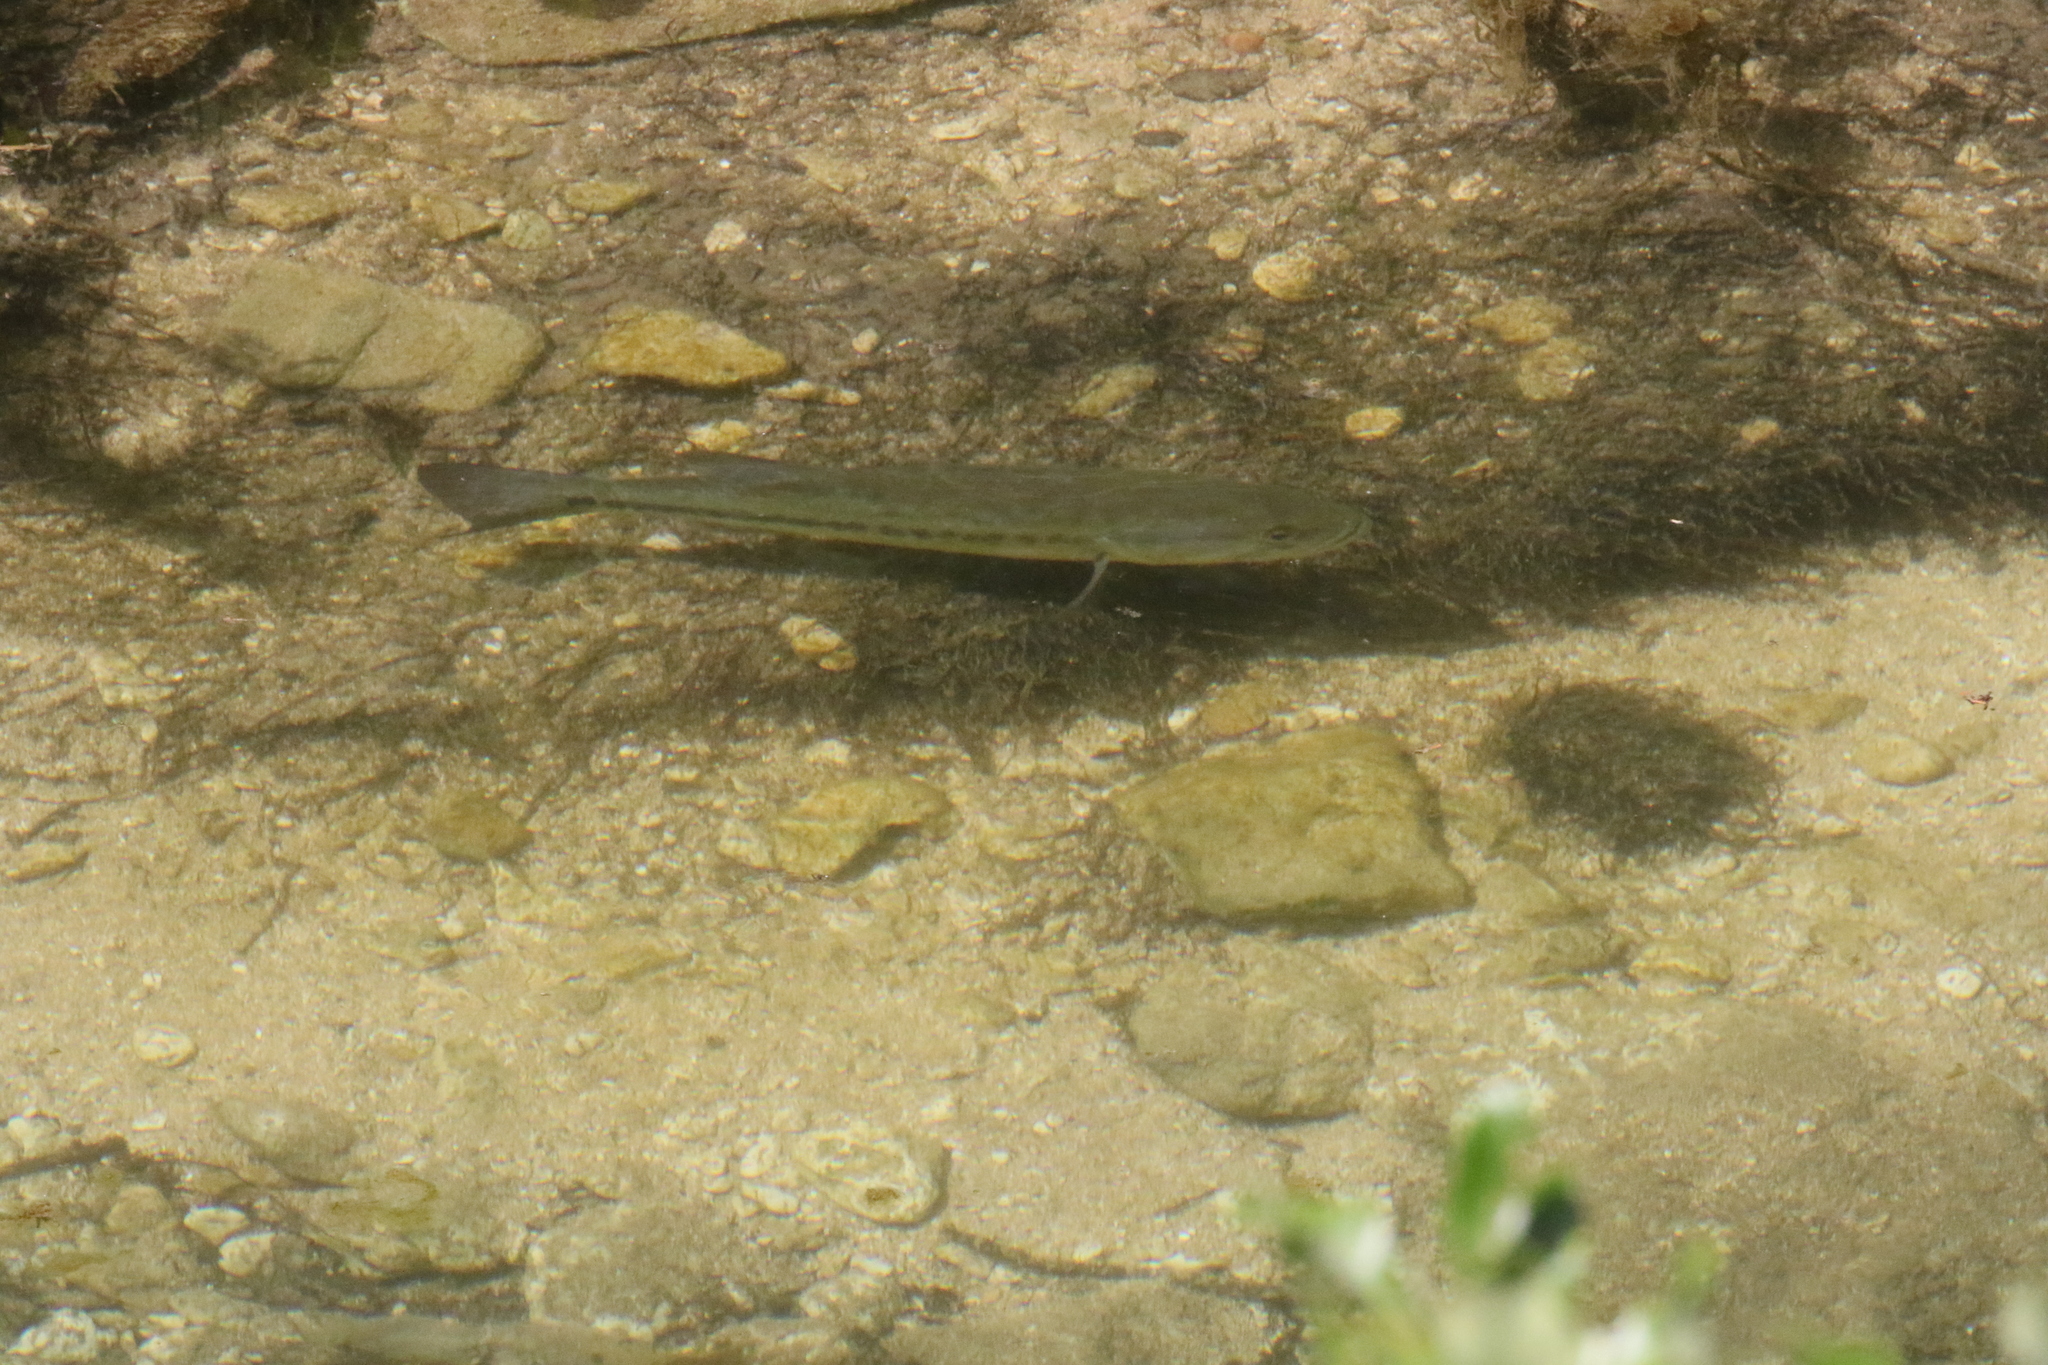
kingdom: Animalia
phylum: Chordata
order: Perciformes
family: Centrarchidae
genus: Micropterus
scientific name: Micropterus
